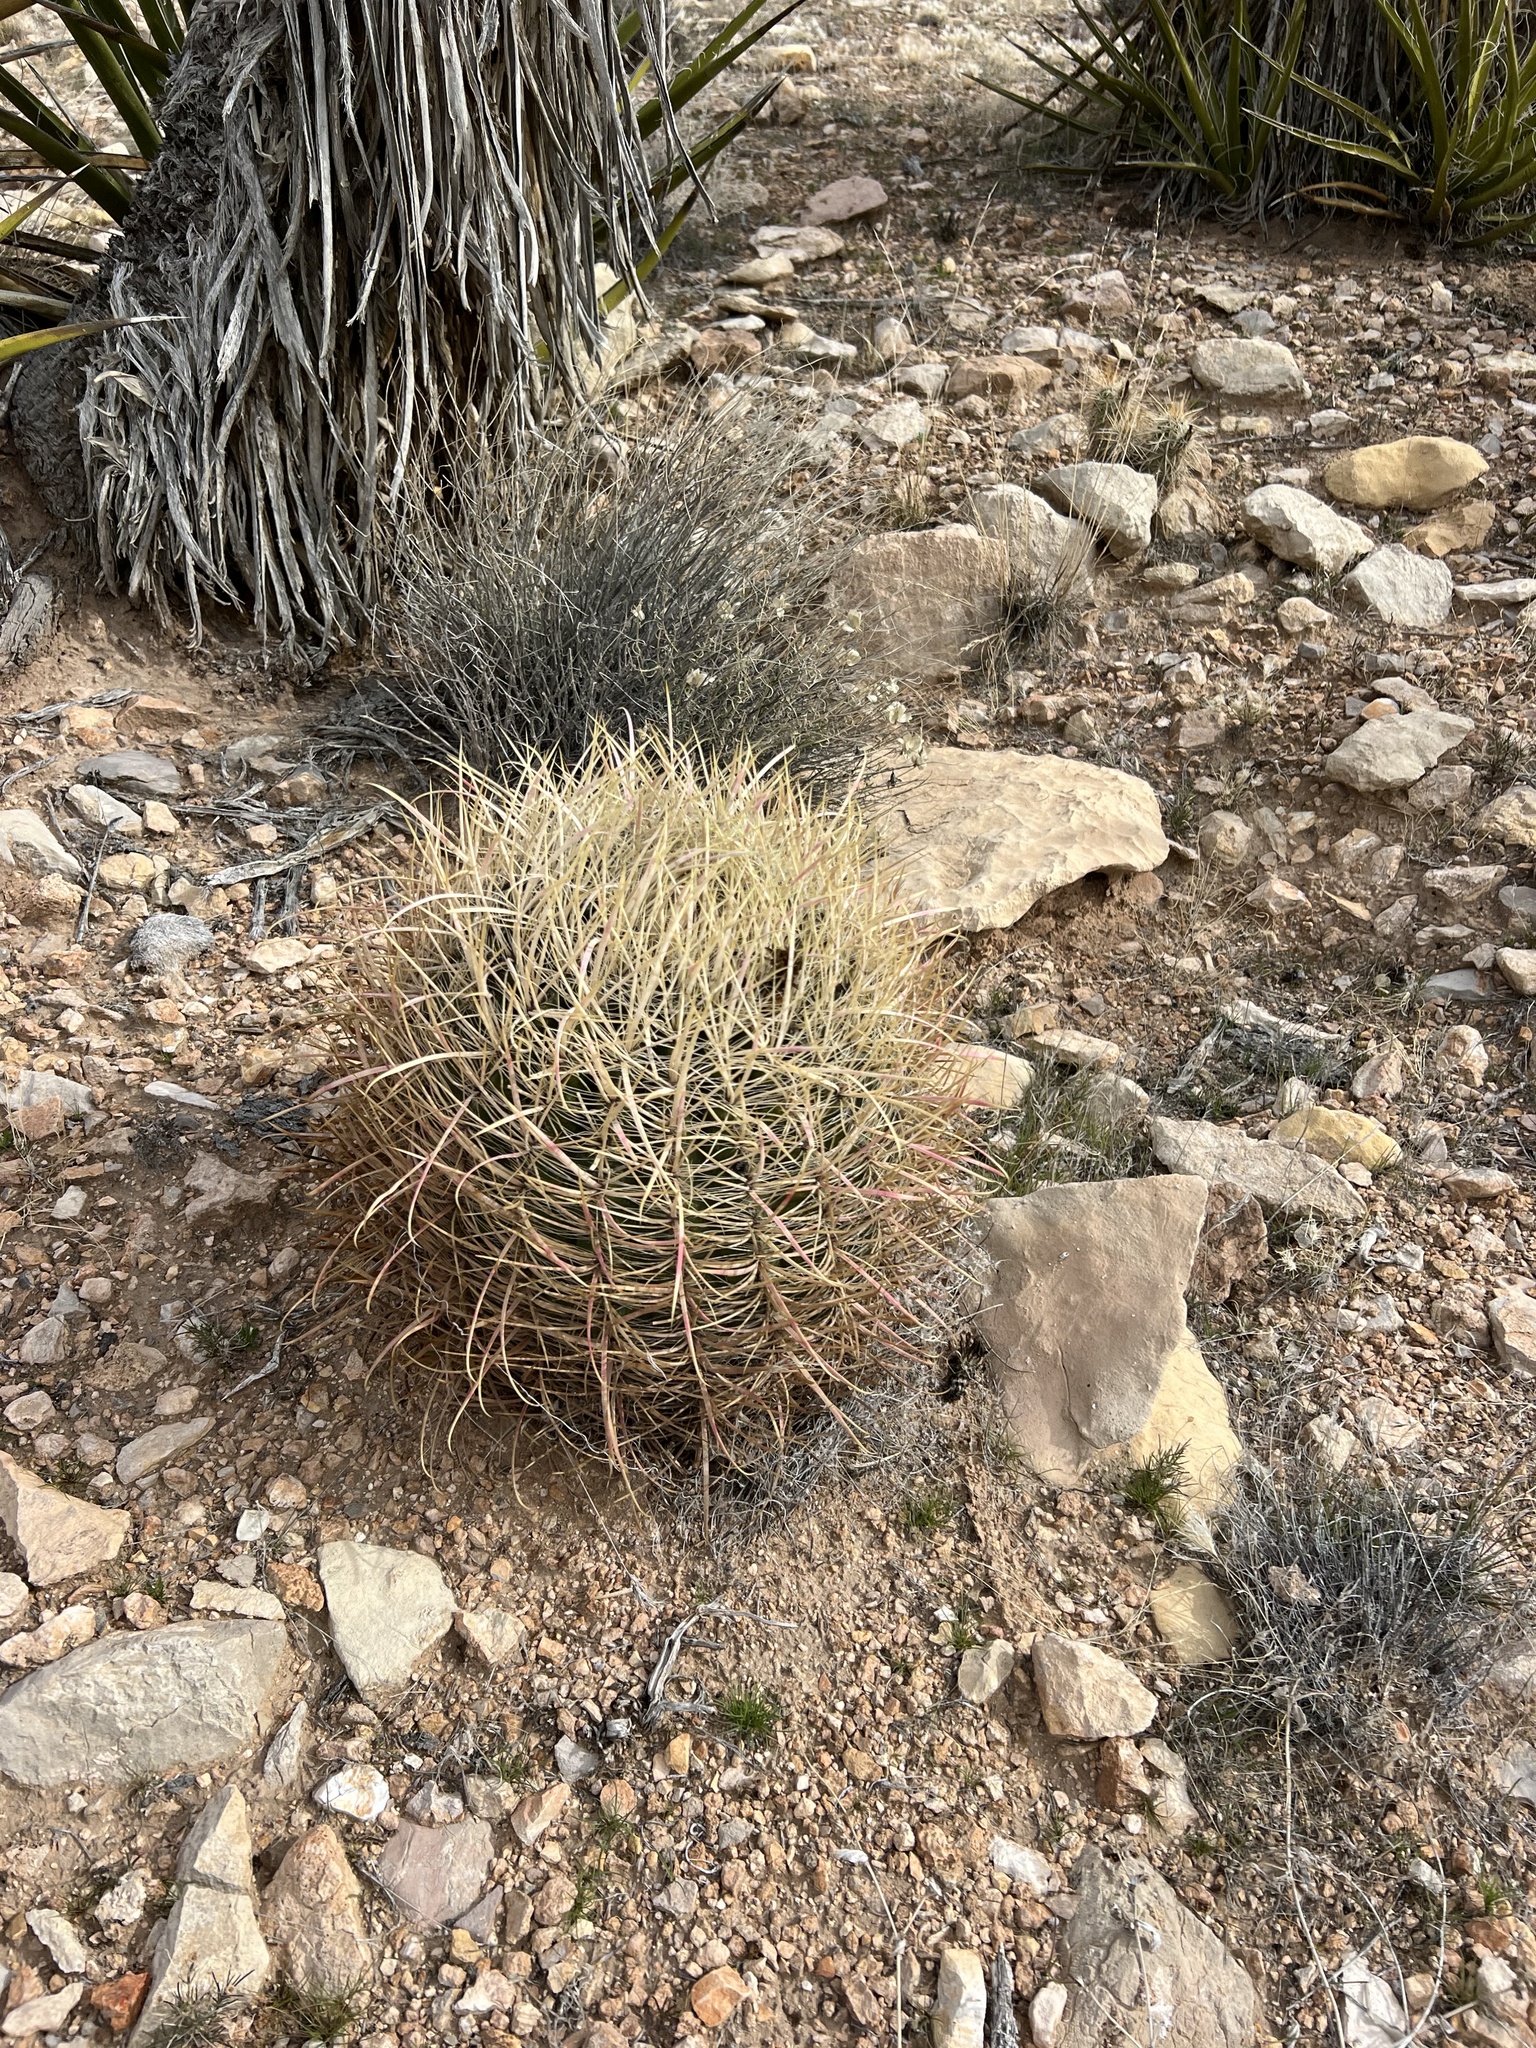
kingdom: Plantae
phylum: Tracheophyta
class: Magnoliopsida
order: Caryophyllales
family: Cactaceae
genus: Ferocactus
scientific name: Ferocactus cylindraceus
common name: California barrel cactus
